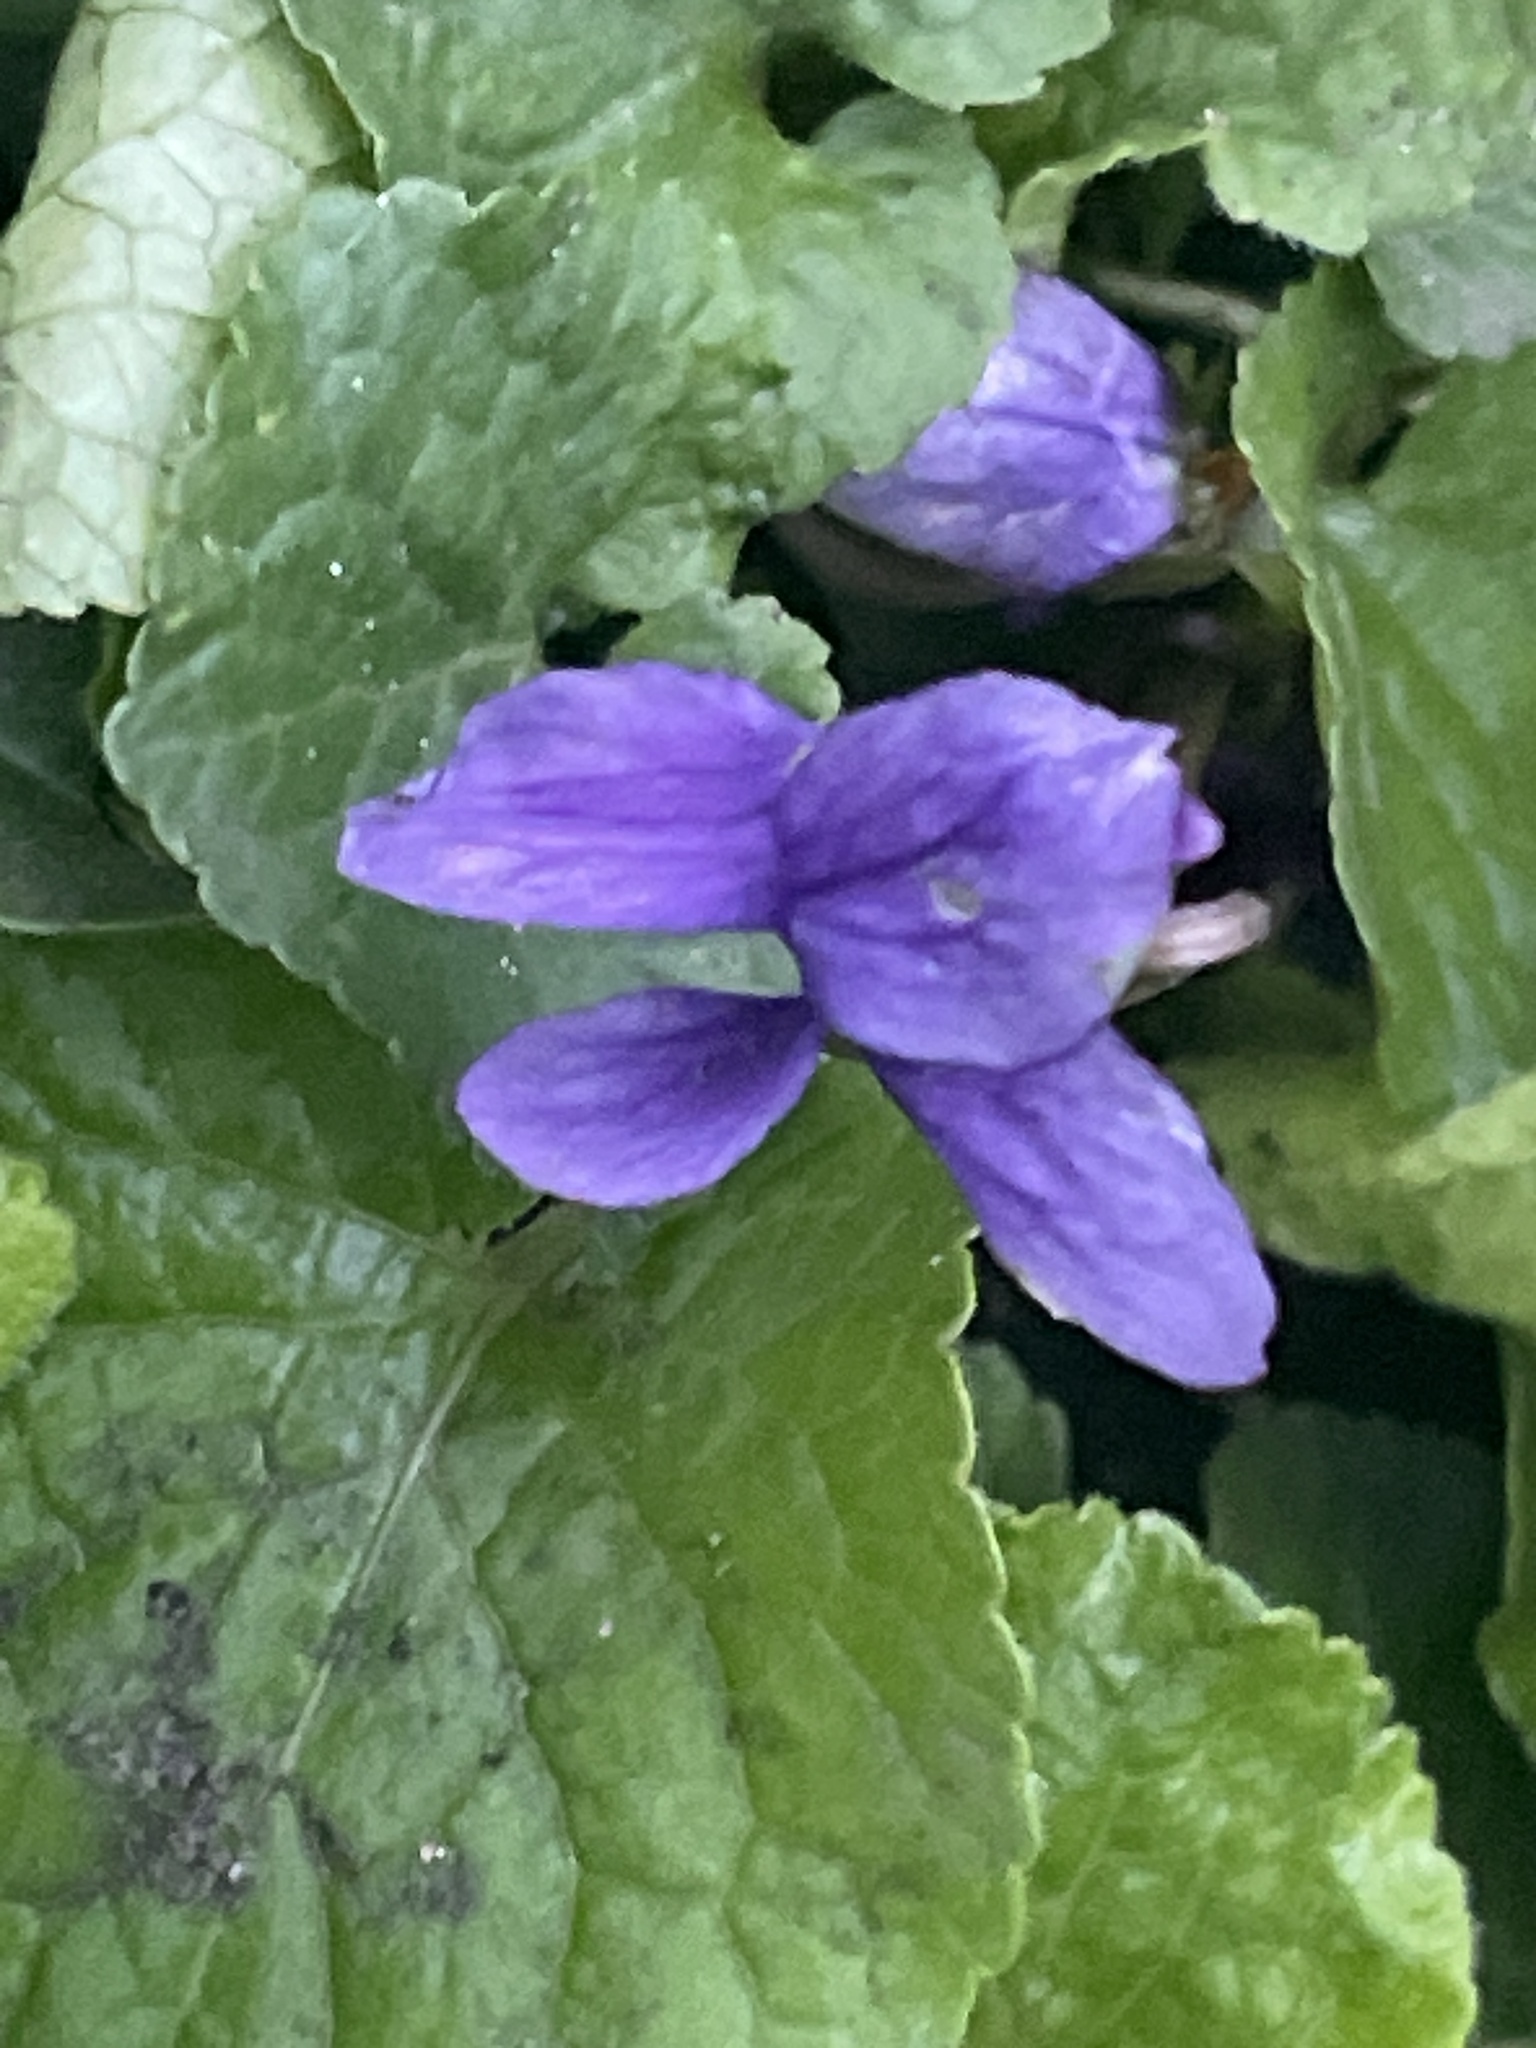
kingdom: Plantae
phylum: Tracheophyta
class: Magnoliopsida
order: Malpighiales
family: Violaceae
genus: Viola
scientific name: Viola odorata
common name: Sweet violet
